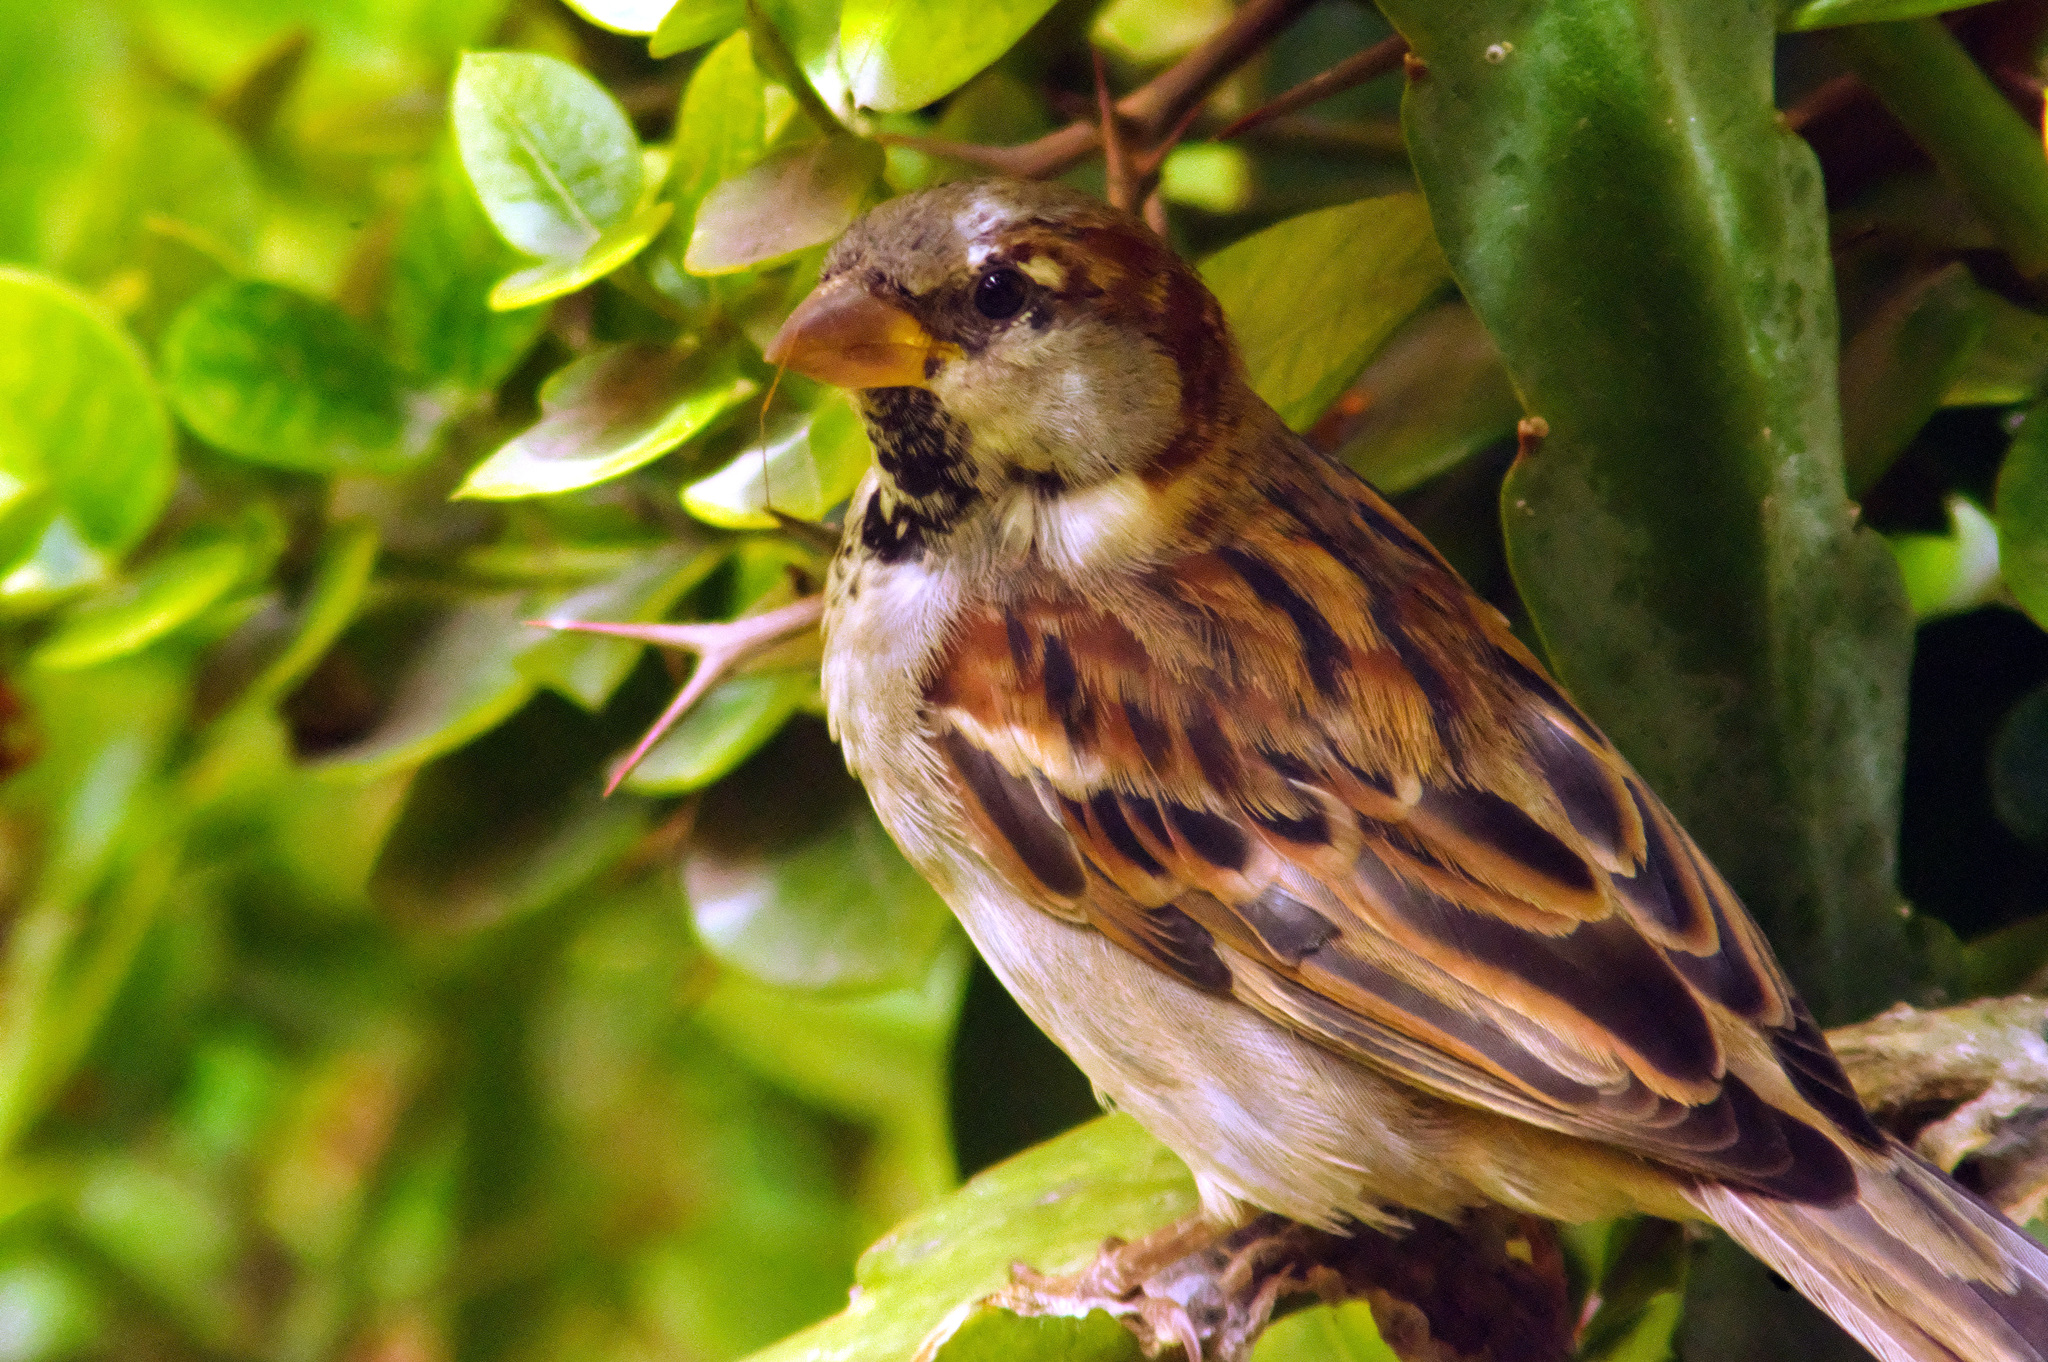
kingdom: Animalia
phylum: Chordata
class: Aves
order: Passeriformes
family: Passeridae
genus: Passer
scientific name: Passer domesticus
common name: House sparrow
